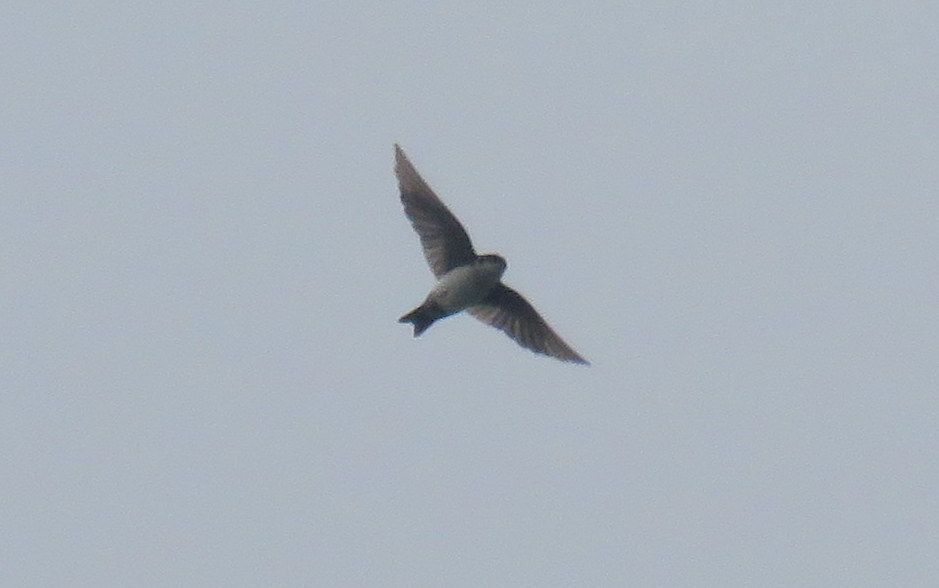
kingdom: Animalia
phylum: Chordata
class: Aves
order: Passeriformes
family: Hirundinidae
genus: Notiochelidon
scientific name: Notiochelidon cyanoleuca
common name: Blue-and-white swallow
